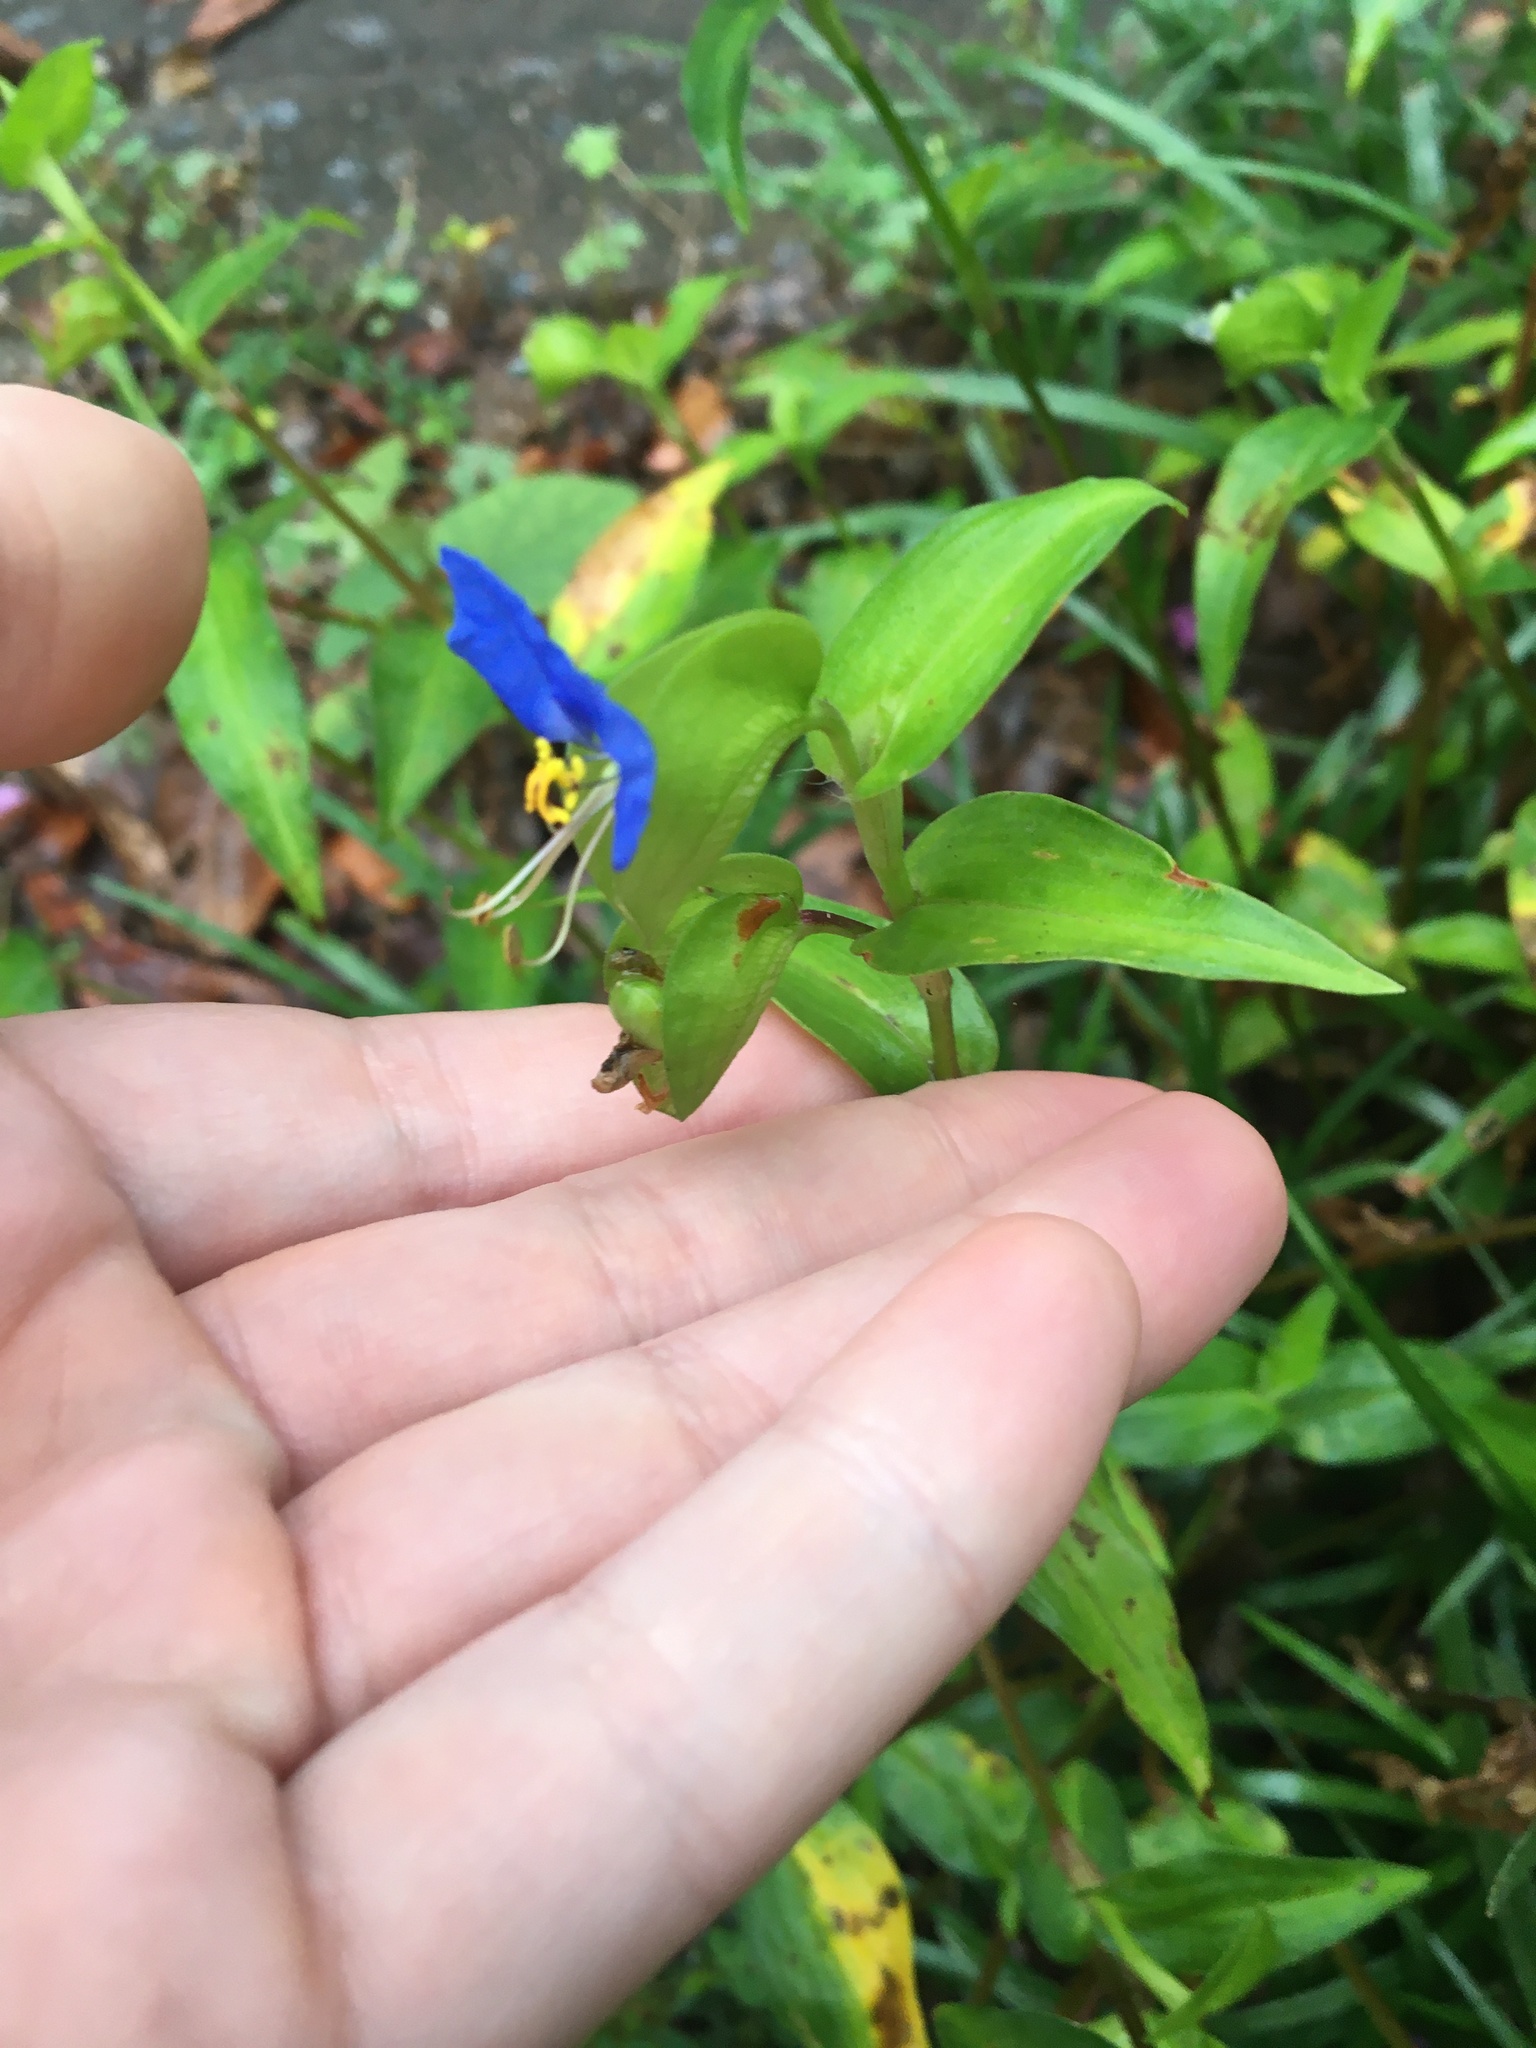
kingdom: Plantae
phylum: Tracheophyta
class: Liliopsida
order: Commelinales
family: Commelinaceae
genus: Commelina
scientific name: Commelina communis
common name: Asiatic dayflower
